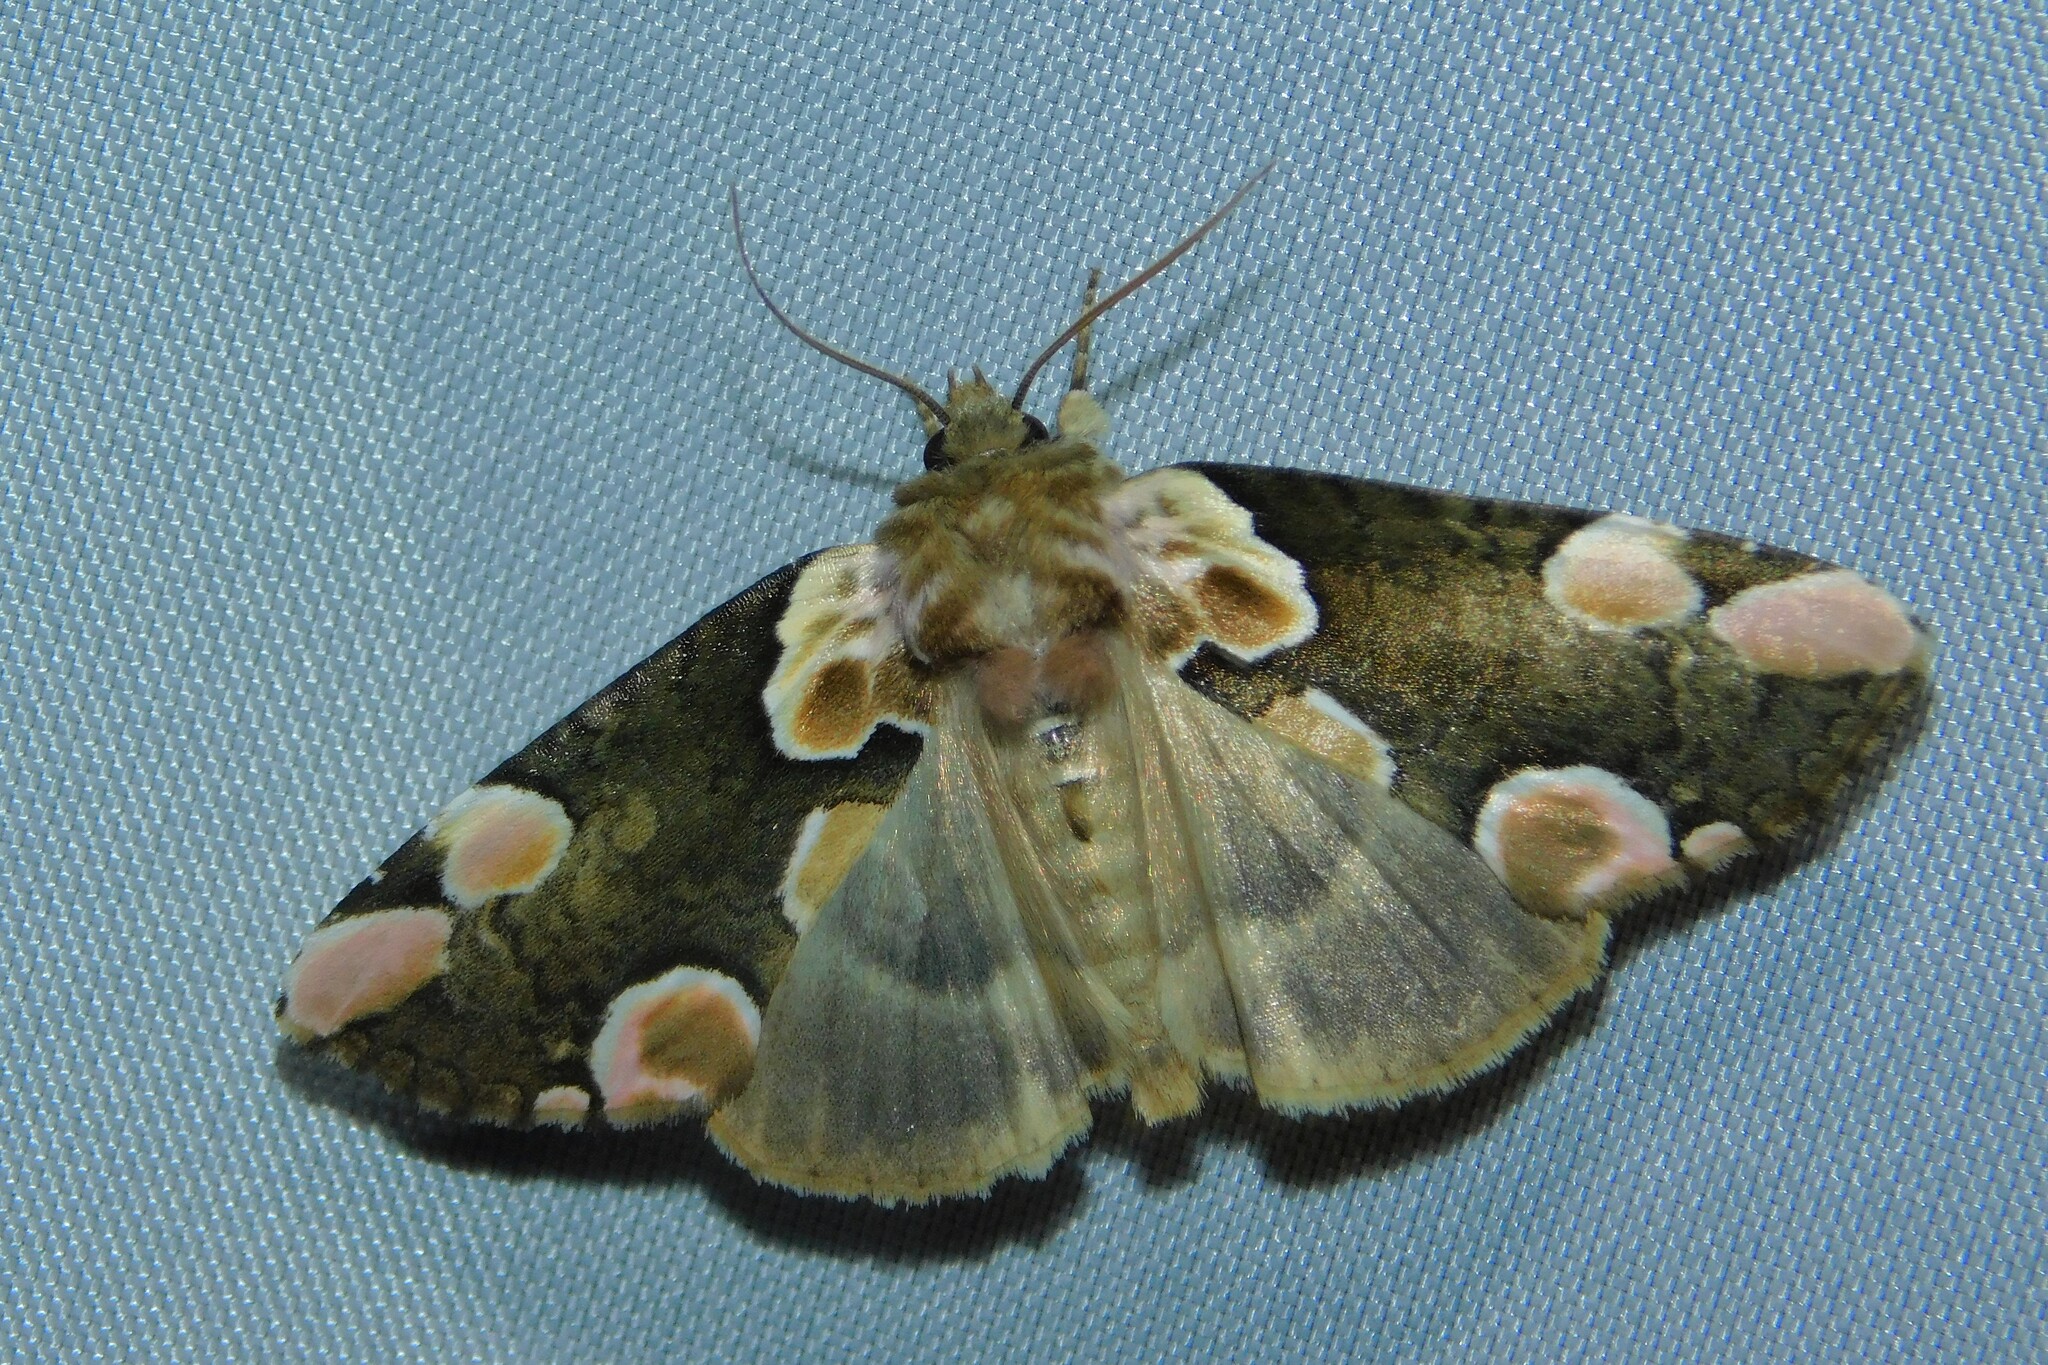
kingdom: Animalia
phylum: Arthropoda
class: Insecta
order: Lepidoptera
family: Drepanidae
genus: Thyatira
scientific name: Thyatira batis
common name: Peach blossom
